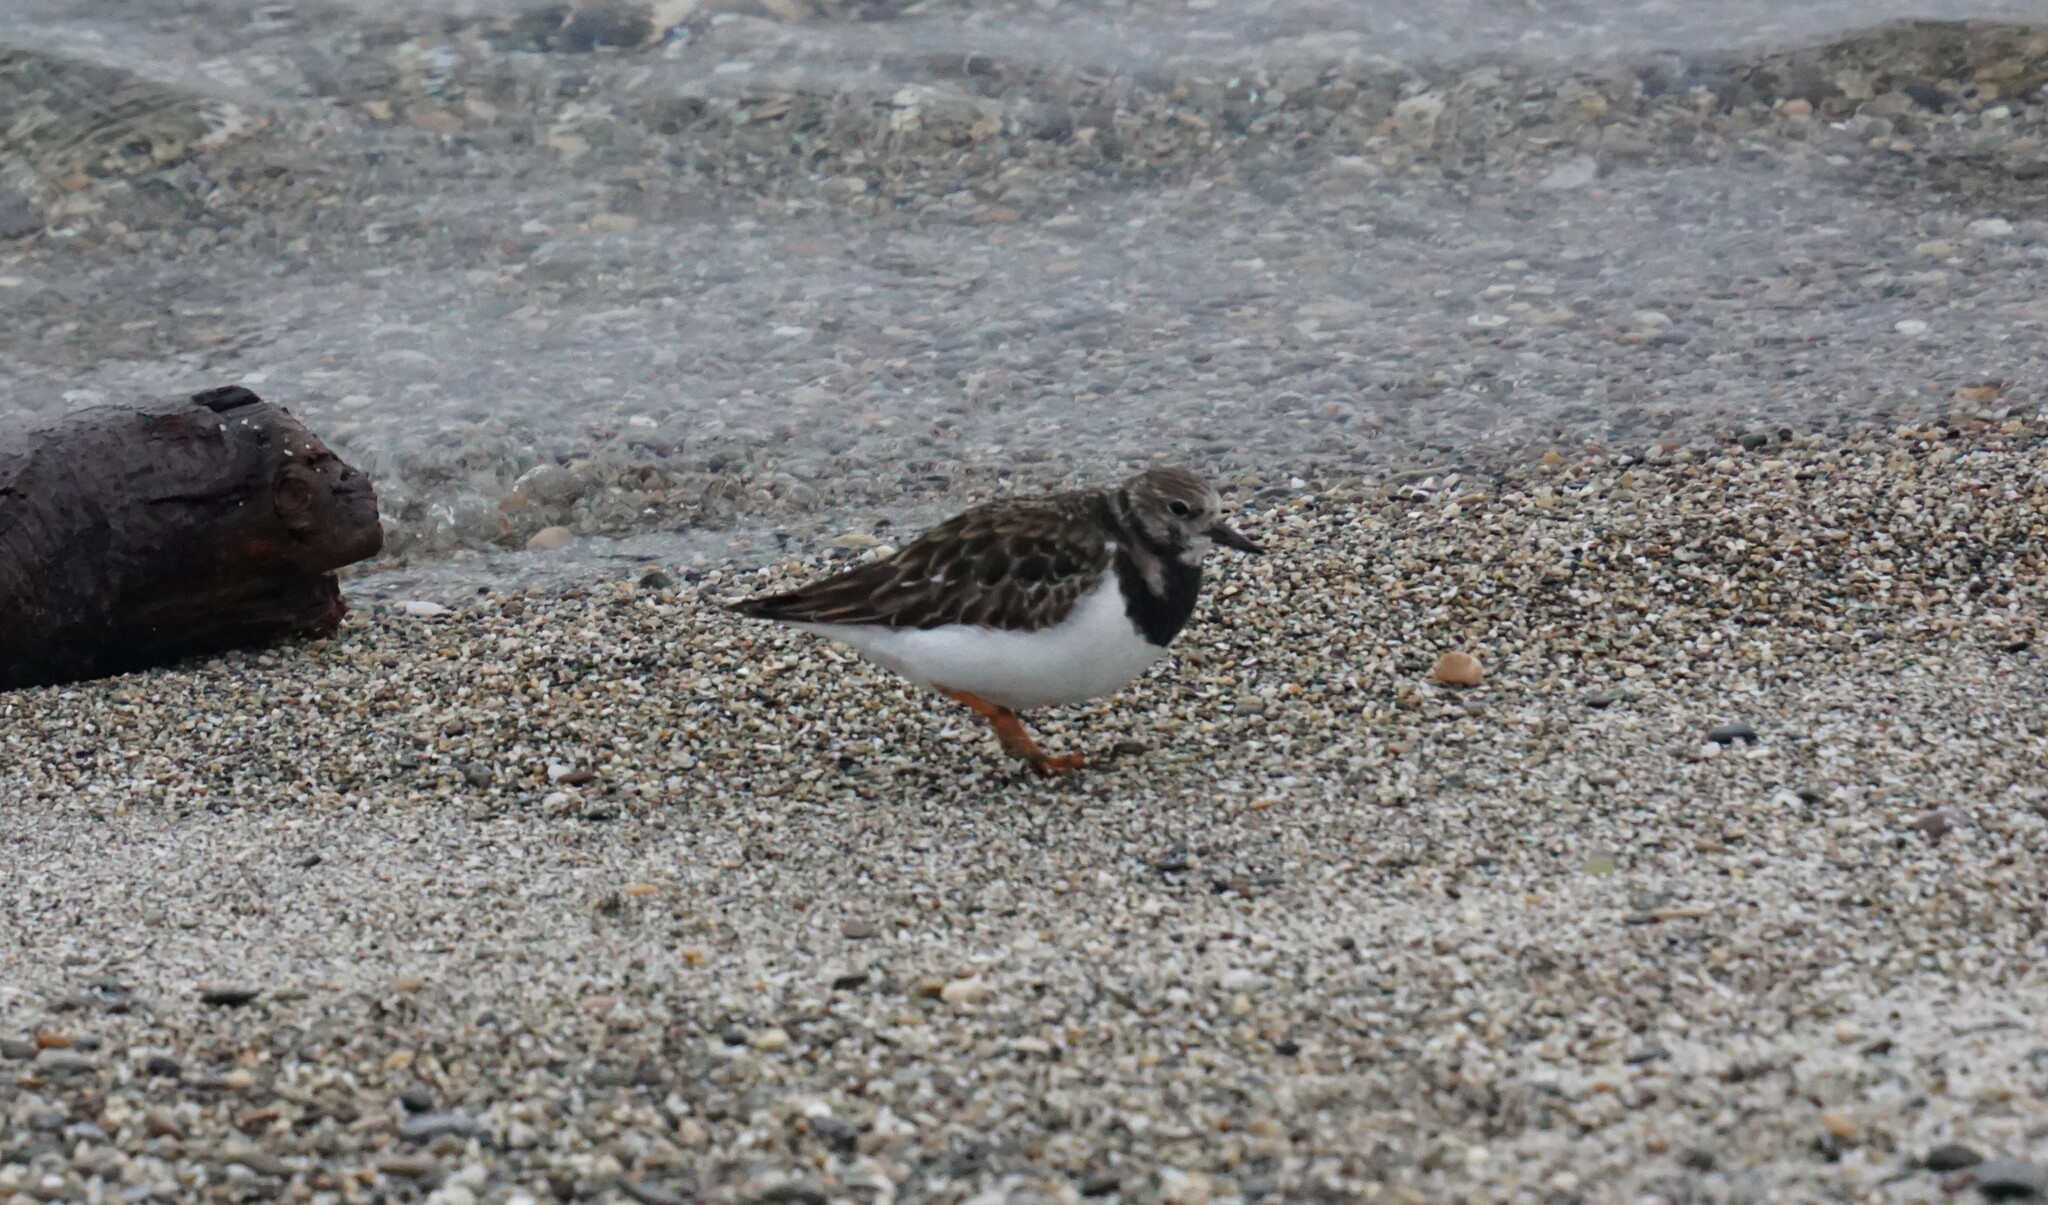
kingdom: Animalia
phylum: Chordata
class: Aves
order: Charadriiformes
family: Scolopacidae
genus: Arenaria
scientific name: Arenaria interpres
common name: Ruddy turnstone
